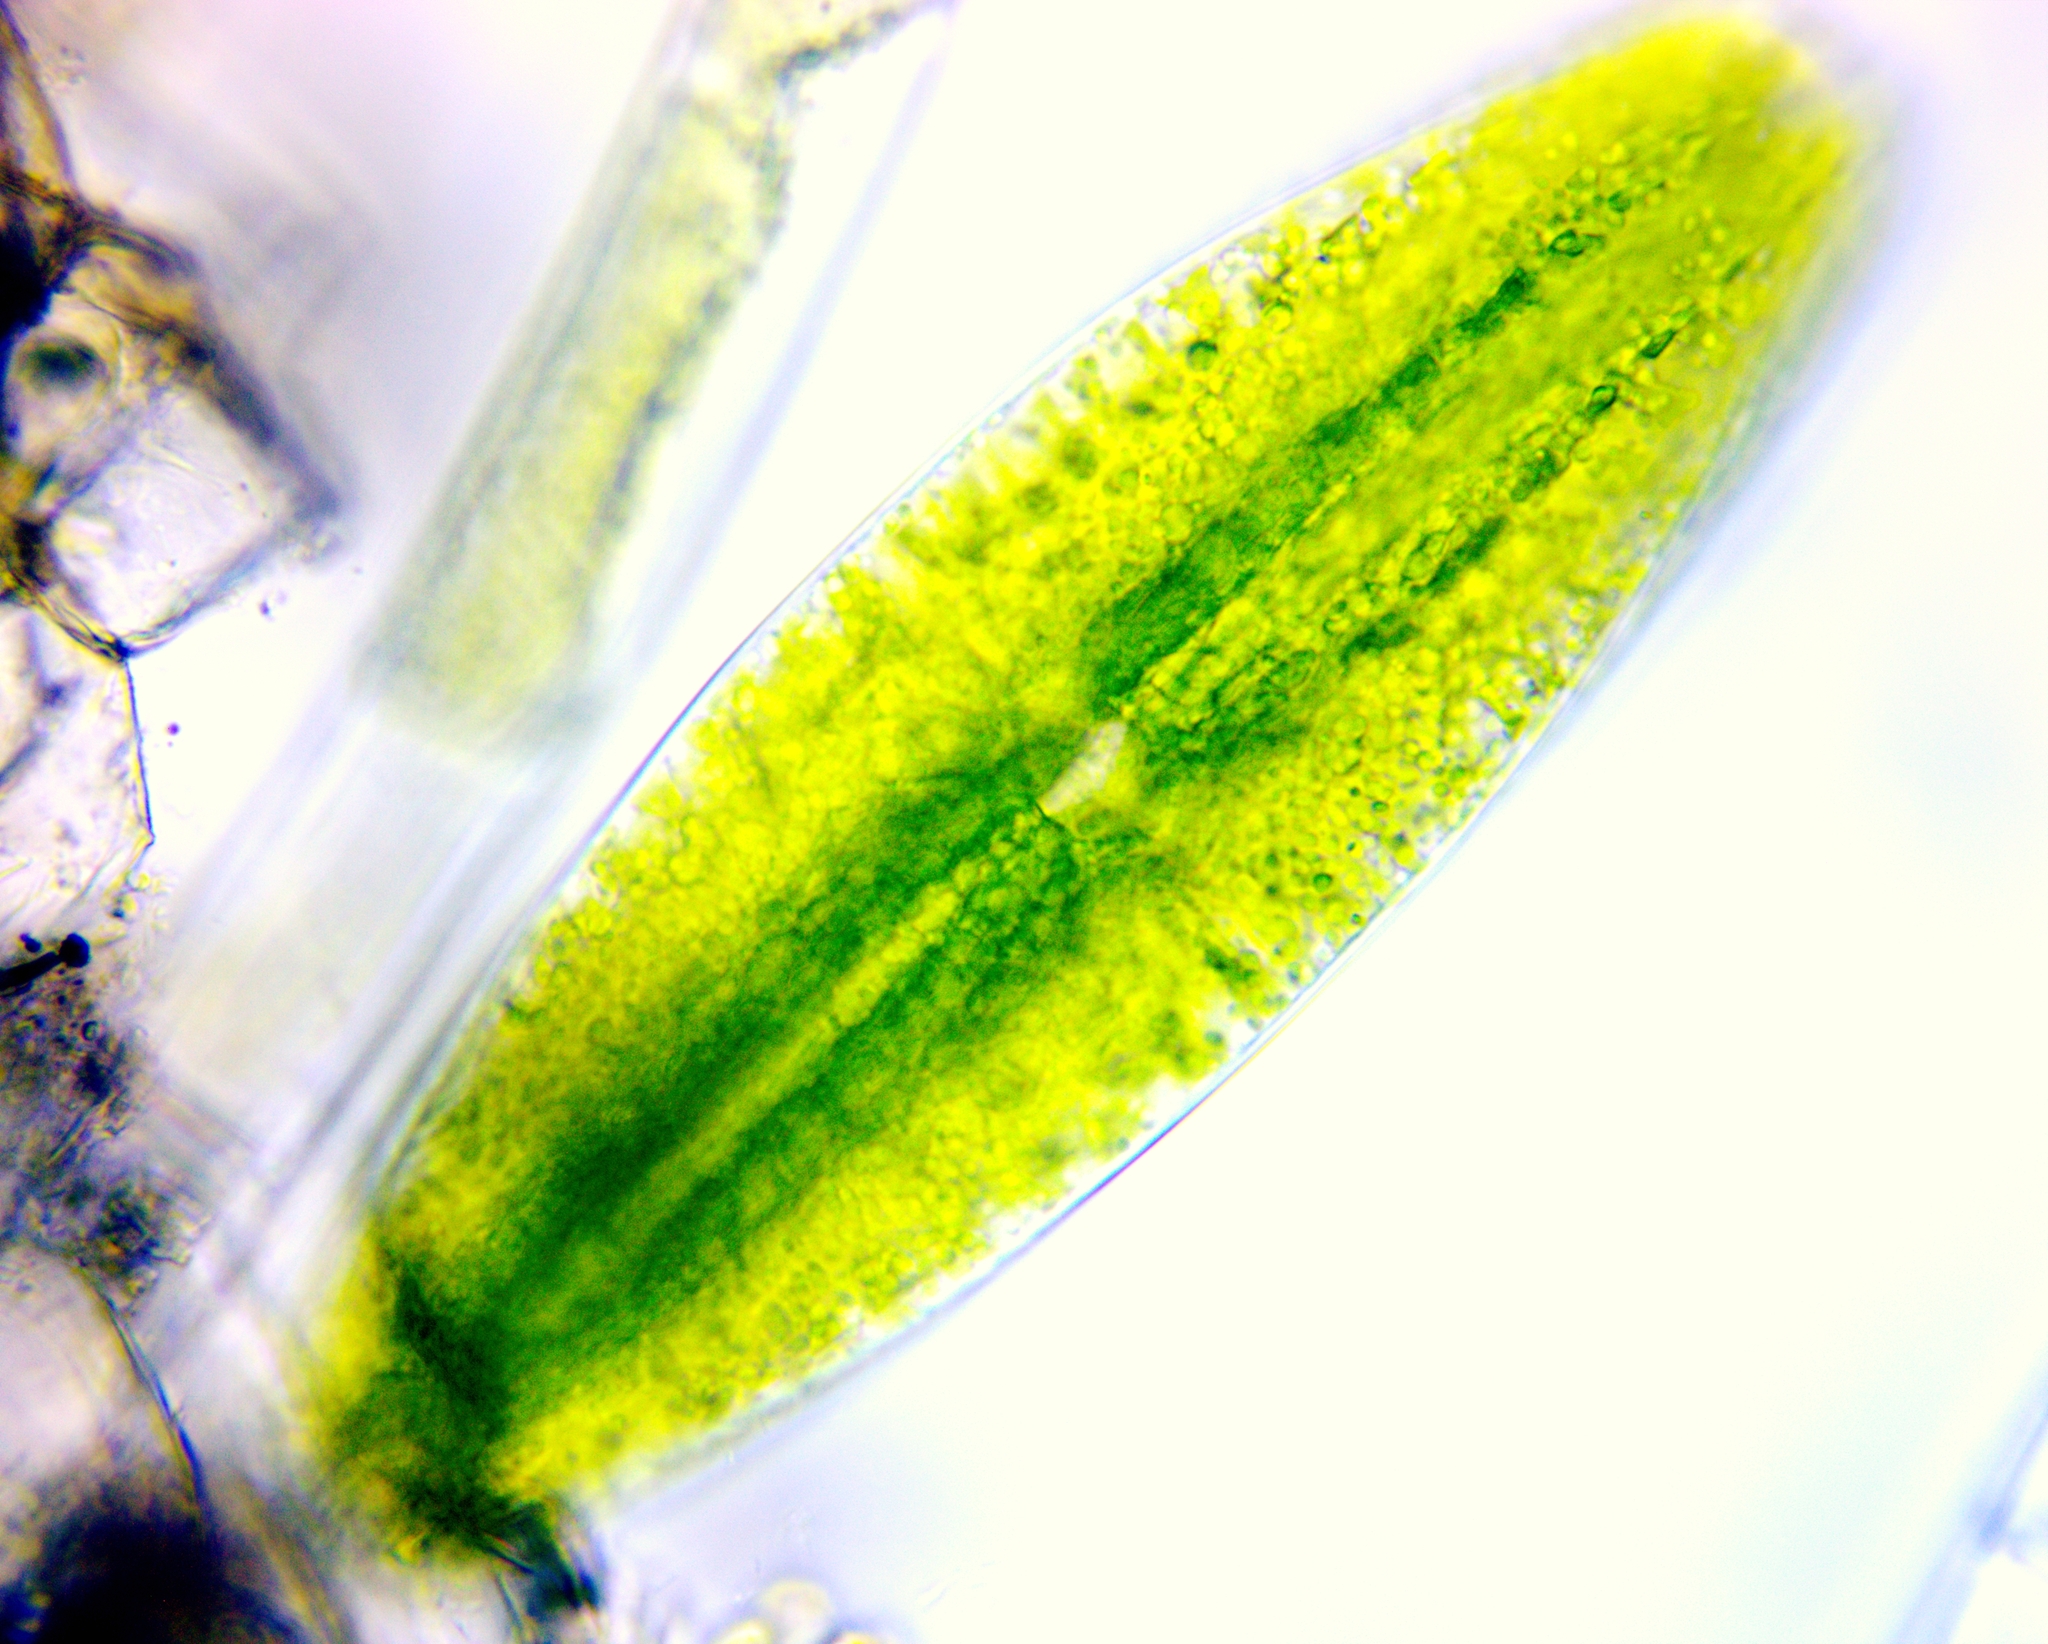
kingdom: Plantae
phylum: Charophyta
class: Zygnematophyceae
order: Zygnematales
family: Mesotaeniaceae
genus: Netrium
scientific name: Netrium digitus
